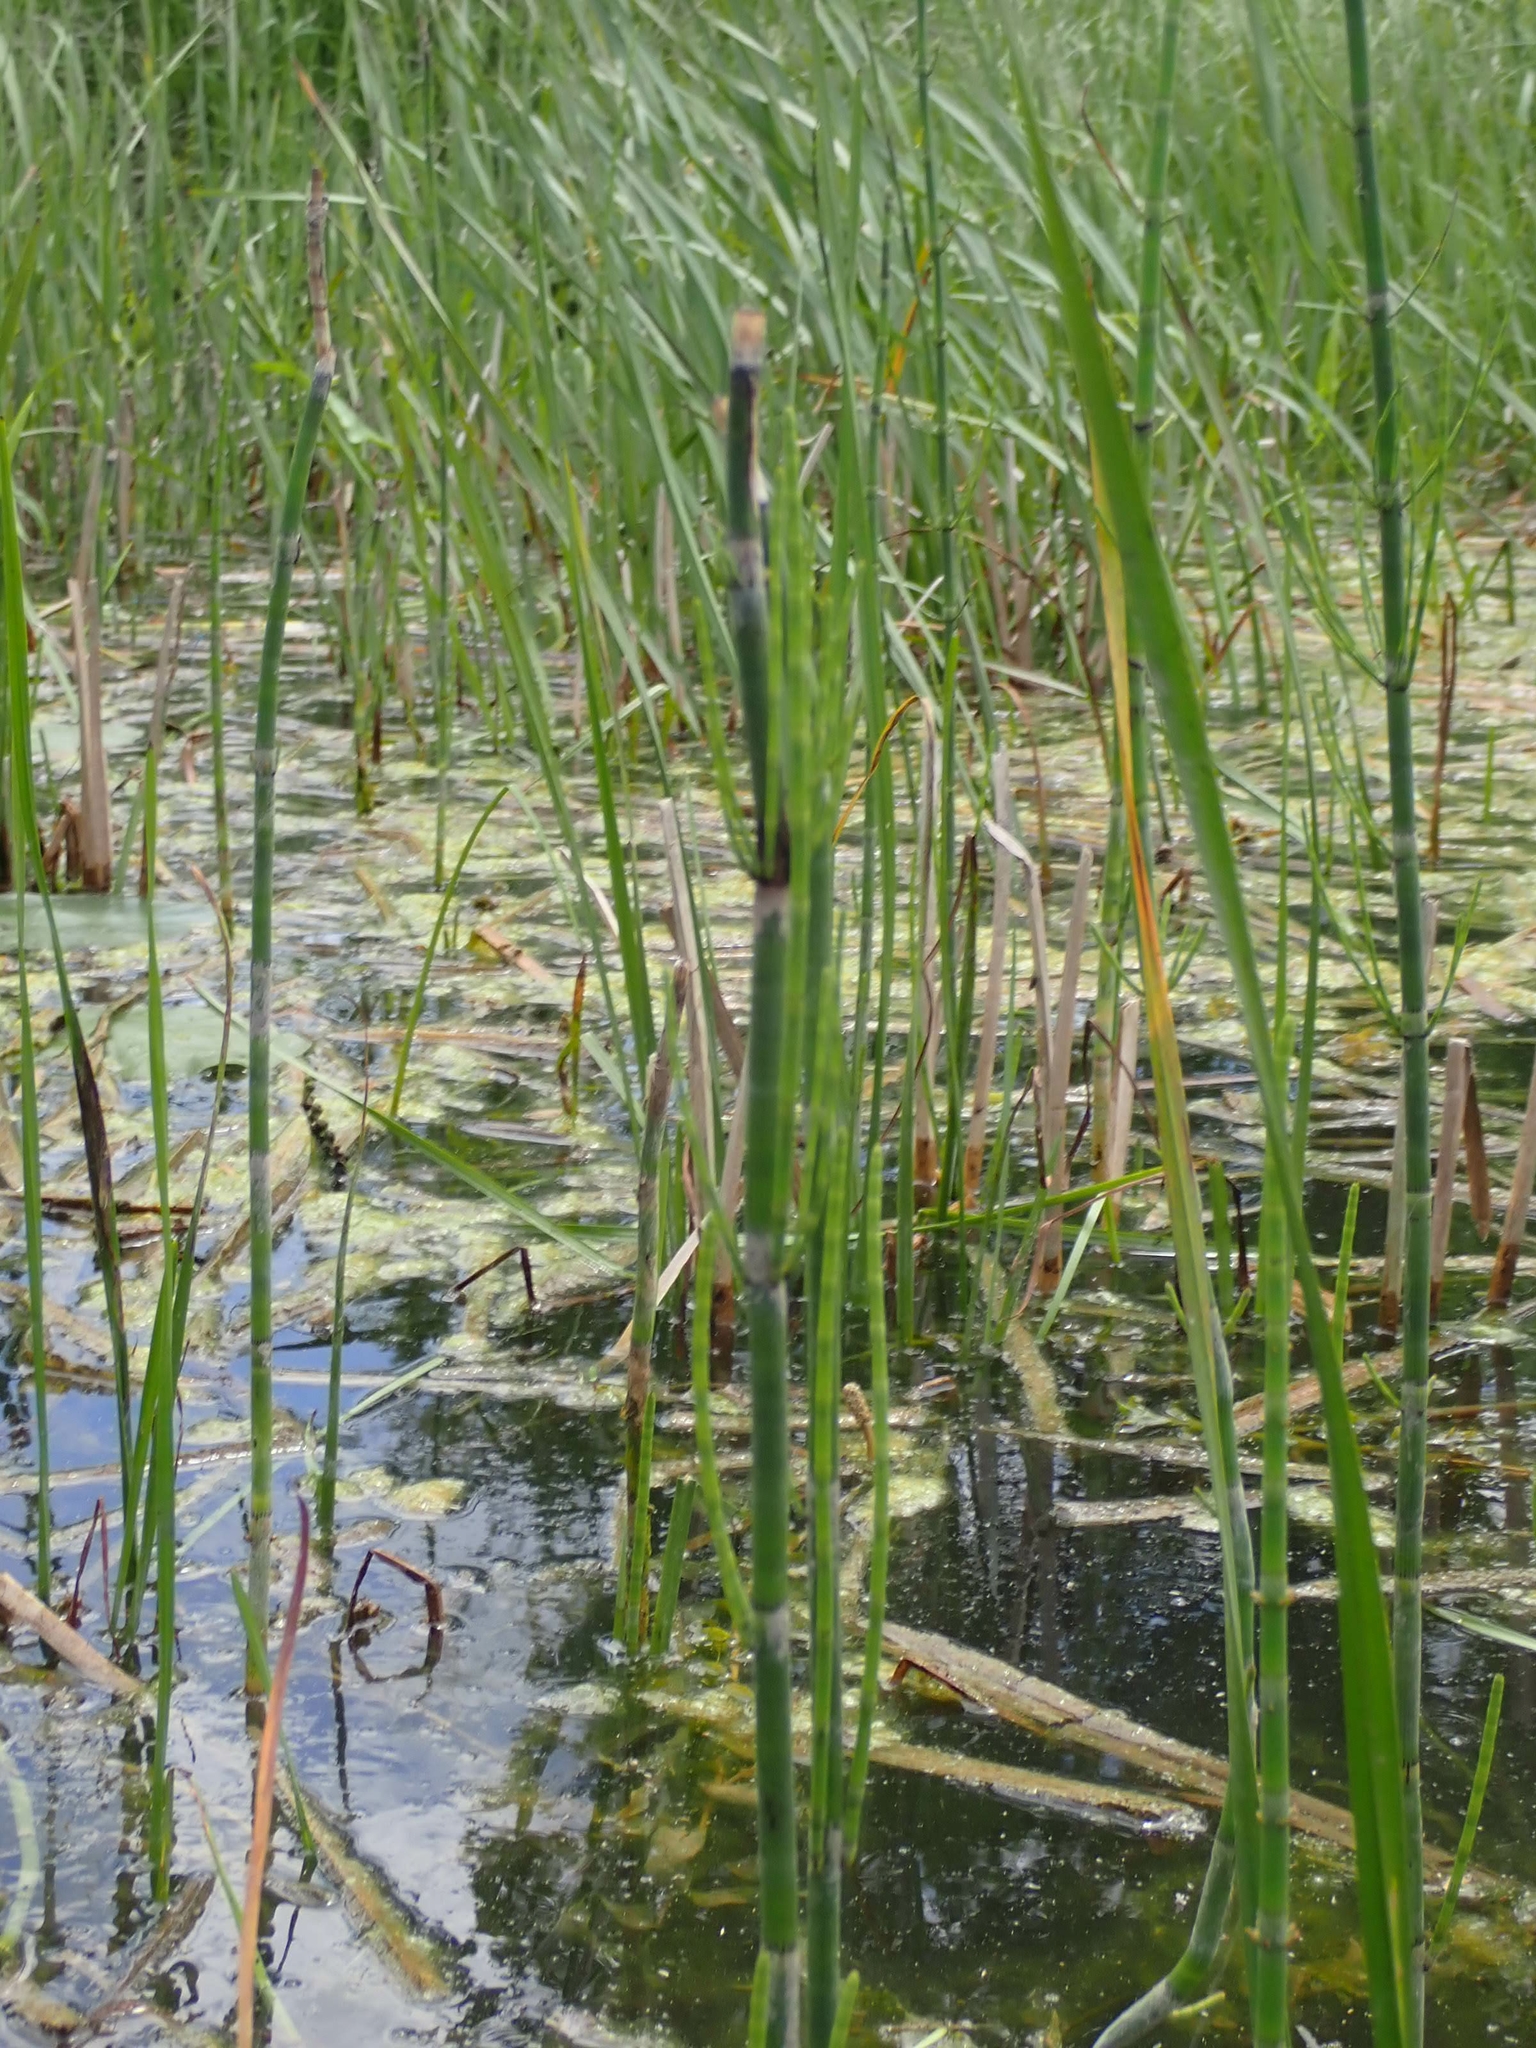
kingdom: Plantae
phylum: Tracheophyta
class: Polypodiopsida
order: Equisetales
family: Equisetaceae
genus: Equisetum
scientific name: Equisetum fluviatile
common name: Water horsetail
